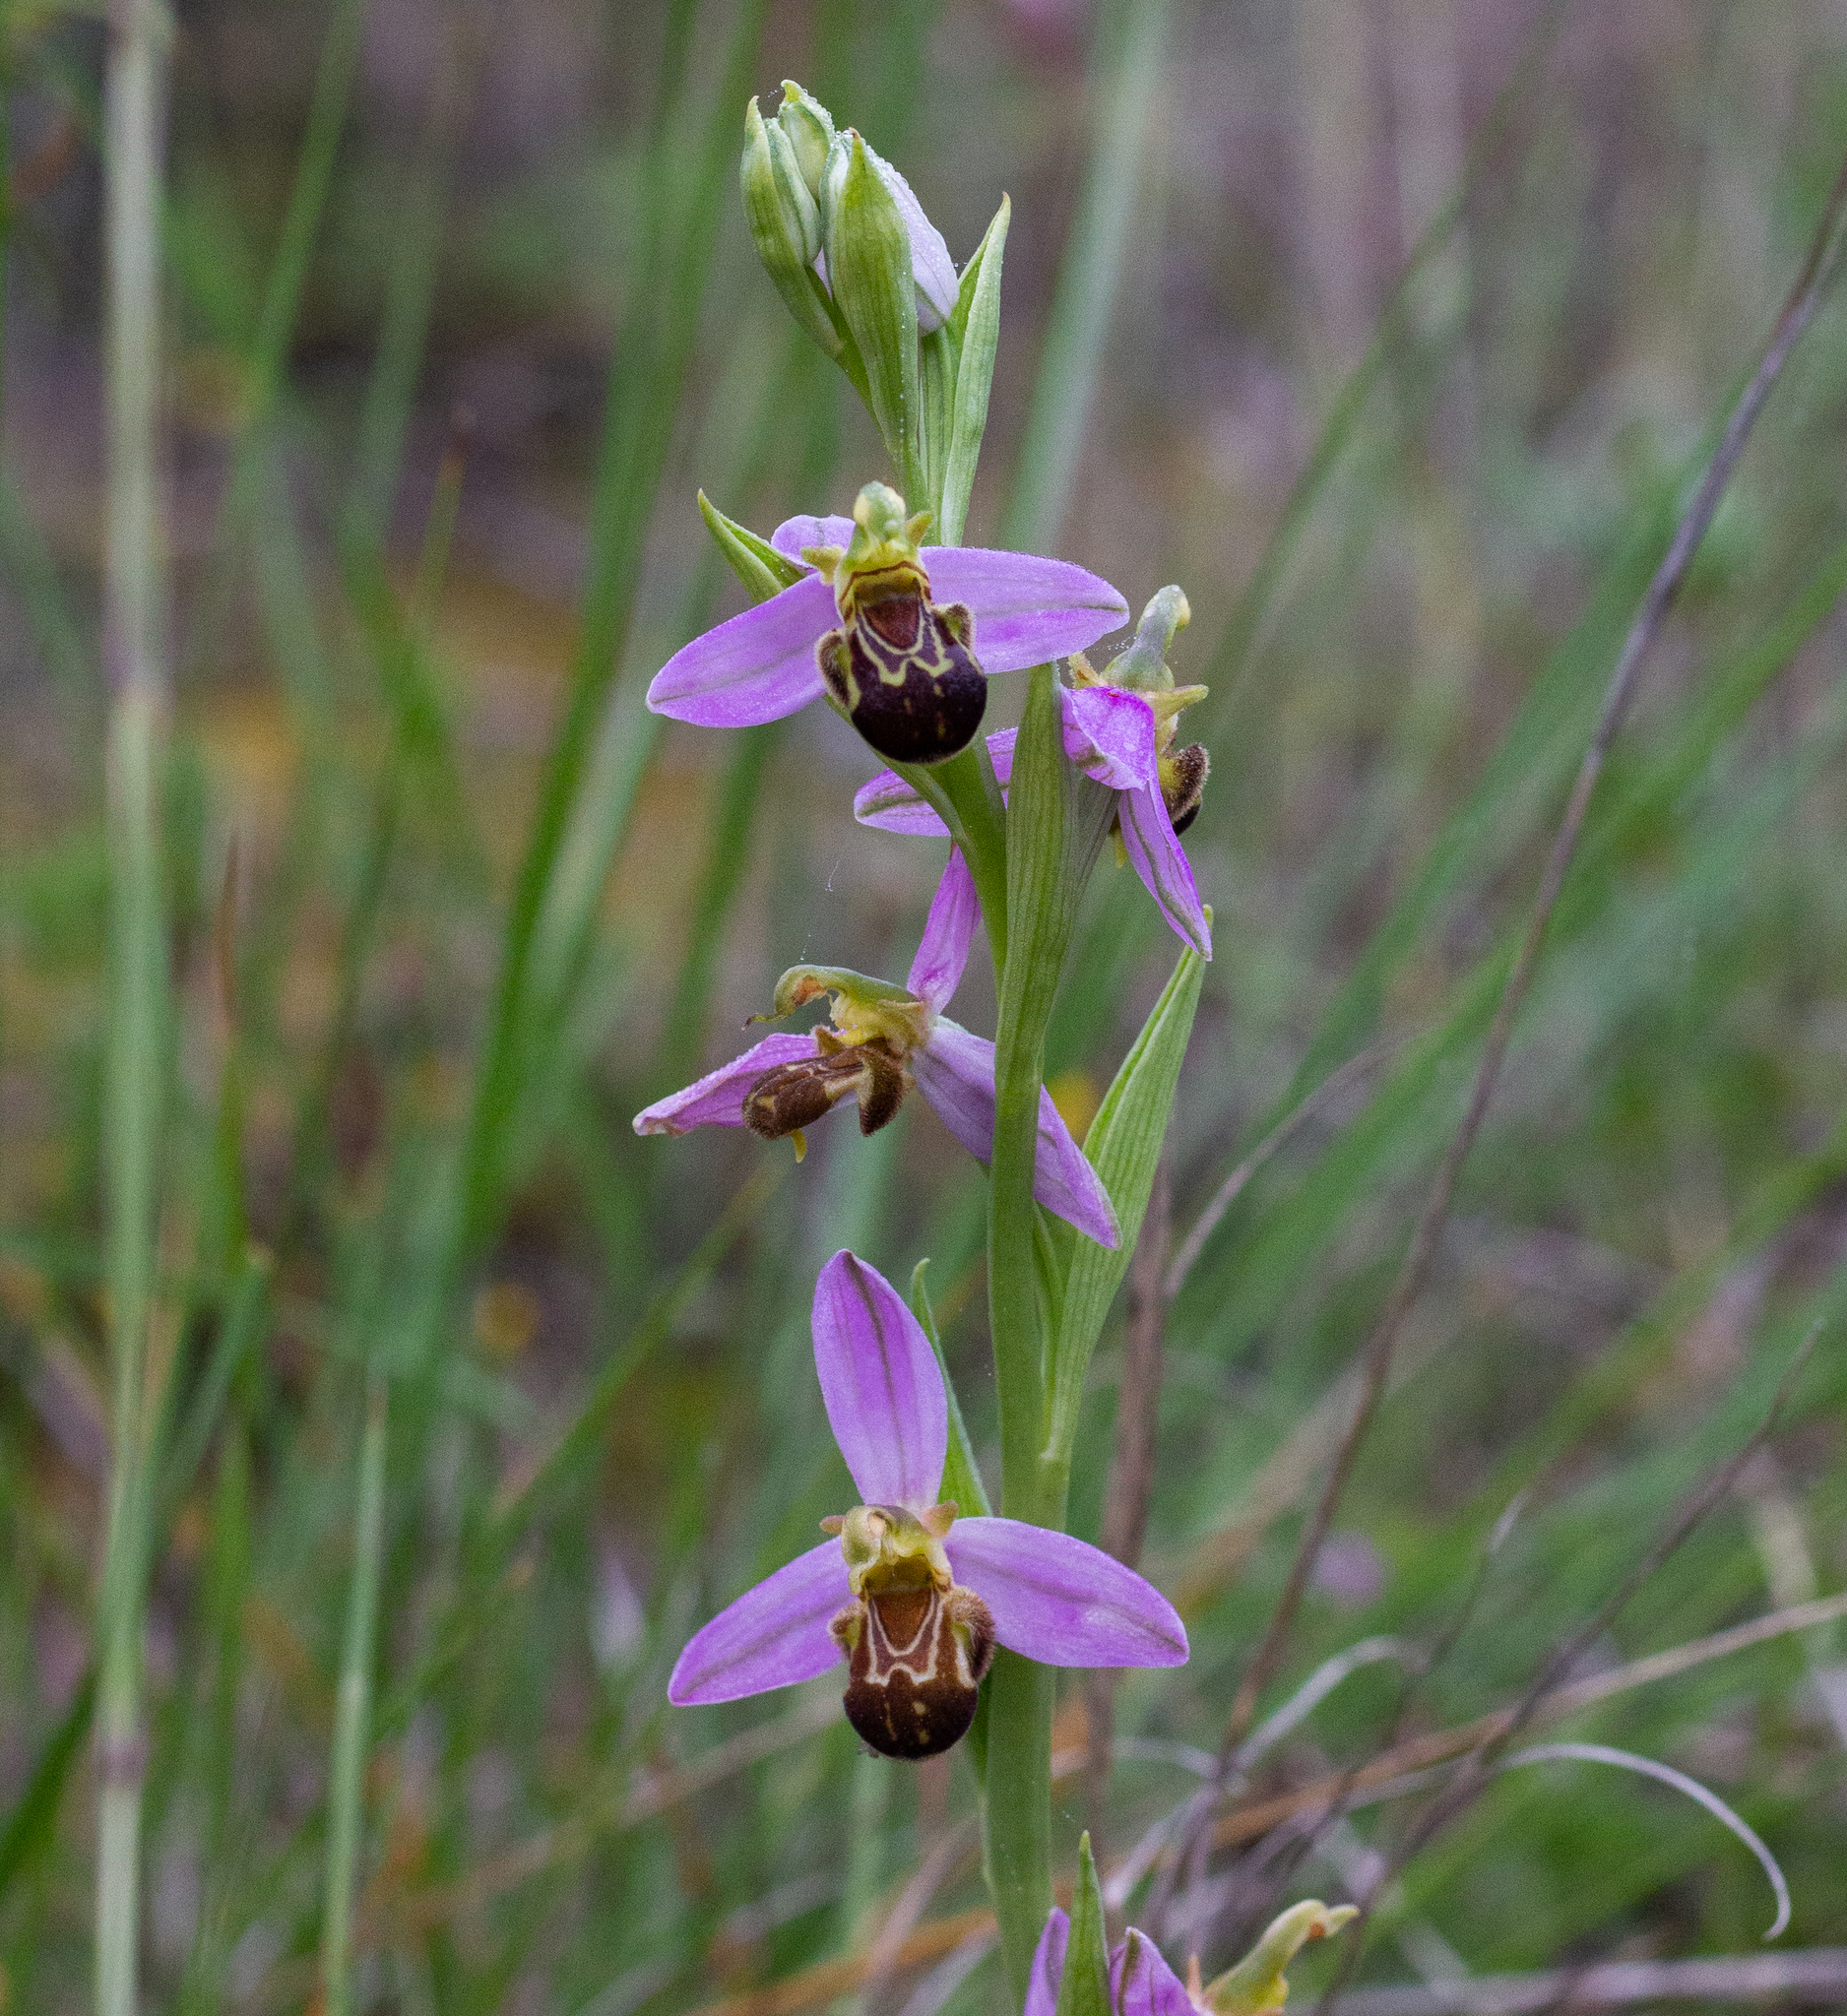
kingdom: Plantae
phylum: Tracheophyta
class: Liliopsida
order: Asparagales
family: Orchidaceae
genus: Ophrys
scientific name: Ophrys apifera
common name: Bee orchid
